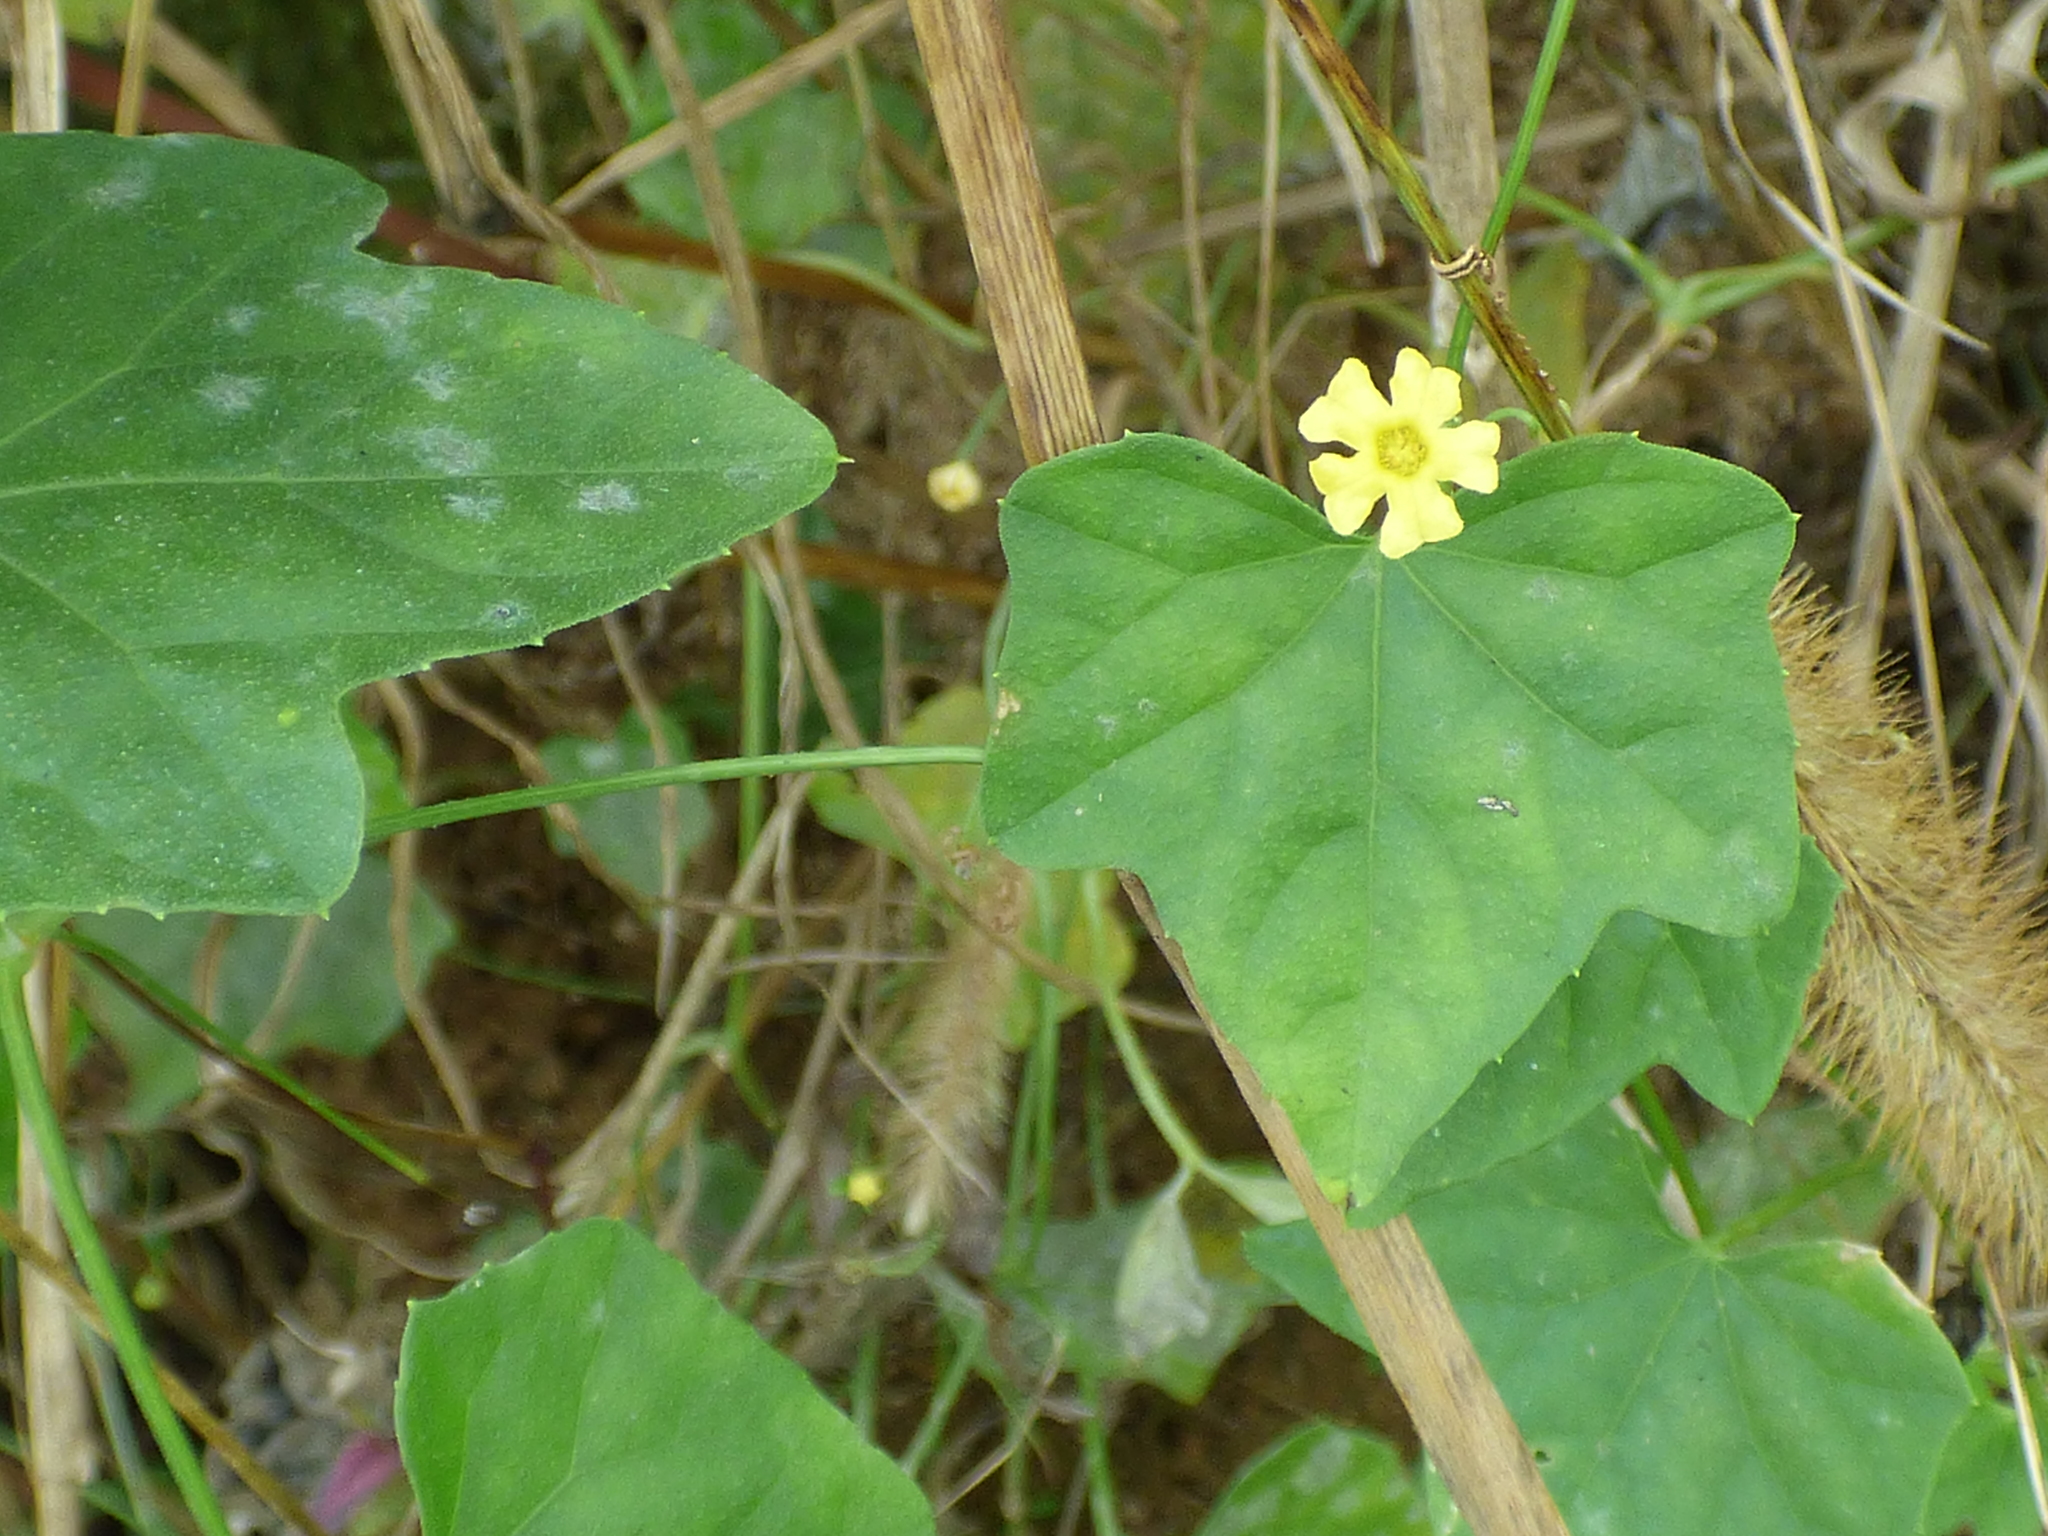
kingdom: Plantae
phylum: Tracheophyta
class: Magnoliopsida
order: Cucurbitales
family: Cucurbitaceae
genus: Melothria
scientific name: Melothria pendula
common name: Creeping-cucumber
